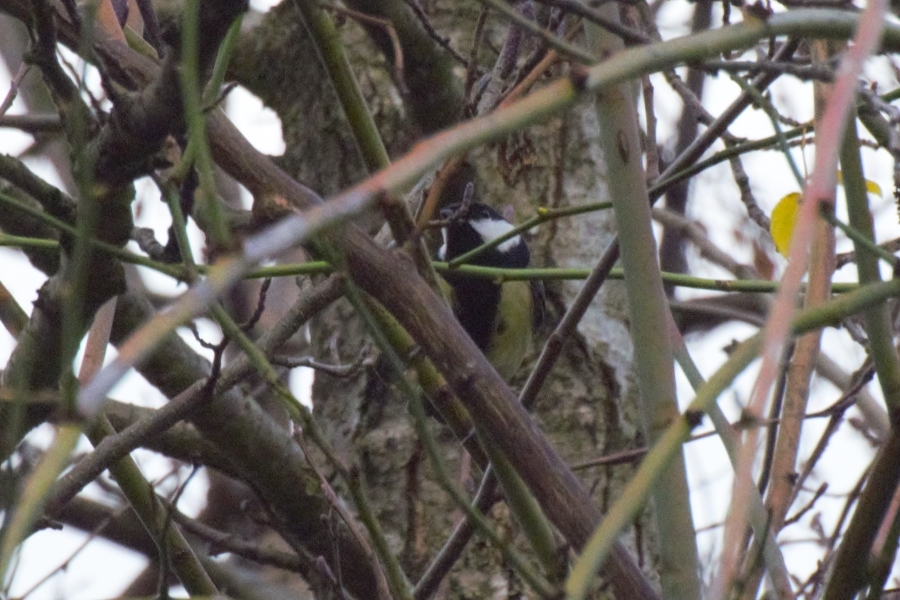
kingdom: Animalia
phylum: Chordata
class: Aves
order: Passeriformes
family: Paridae
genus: Parus
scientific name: Parus major
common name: Great tit
